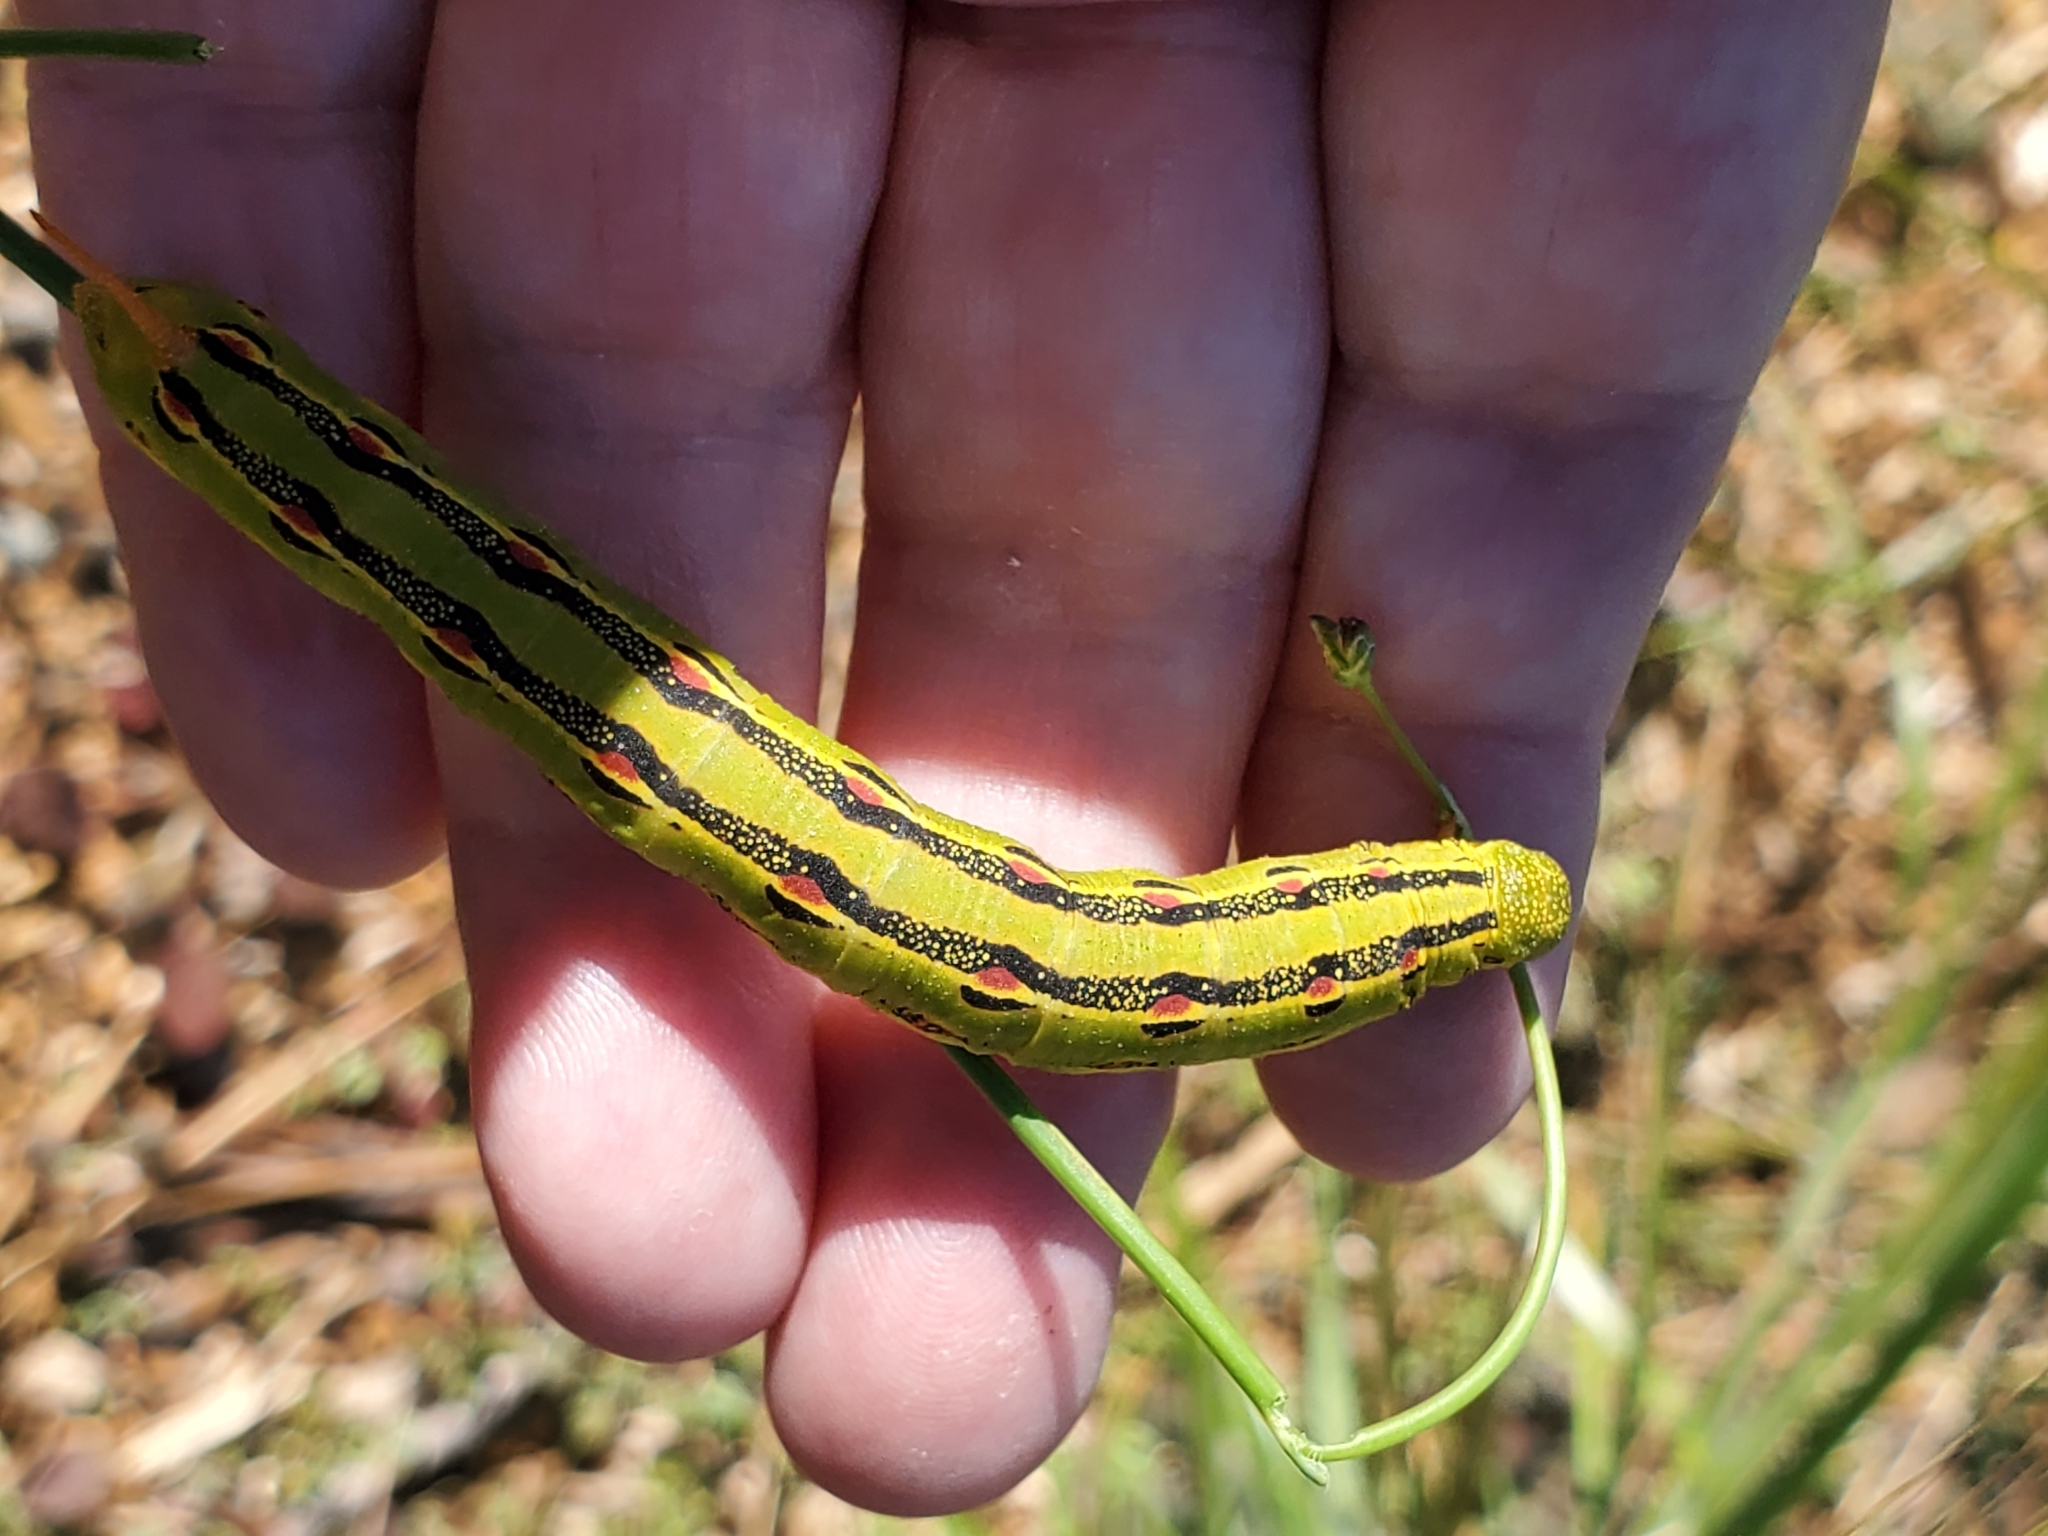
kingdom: Animalia
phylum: Arthropoda
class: Insecta
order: Lepidoptera
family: Sphingidae
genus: Hyles
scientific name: Hyles lineata
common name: White-lined sphinx
